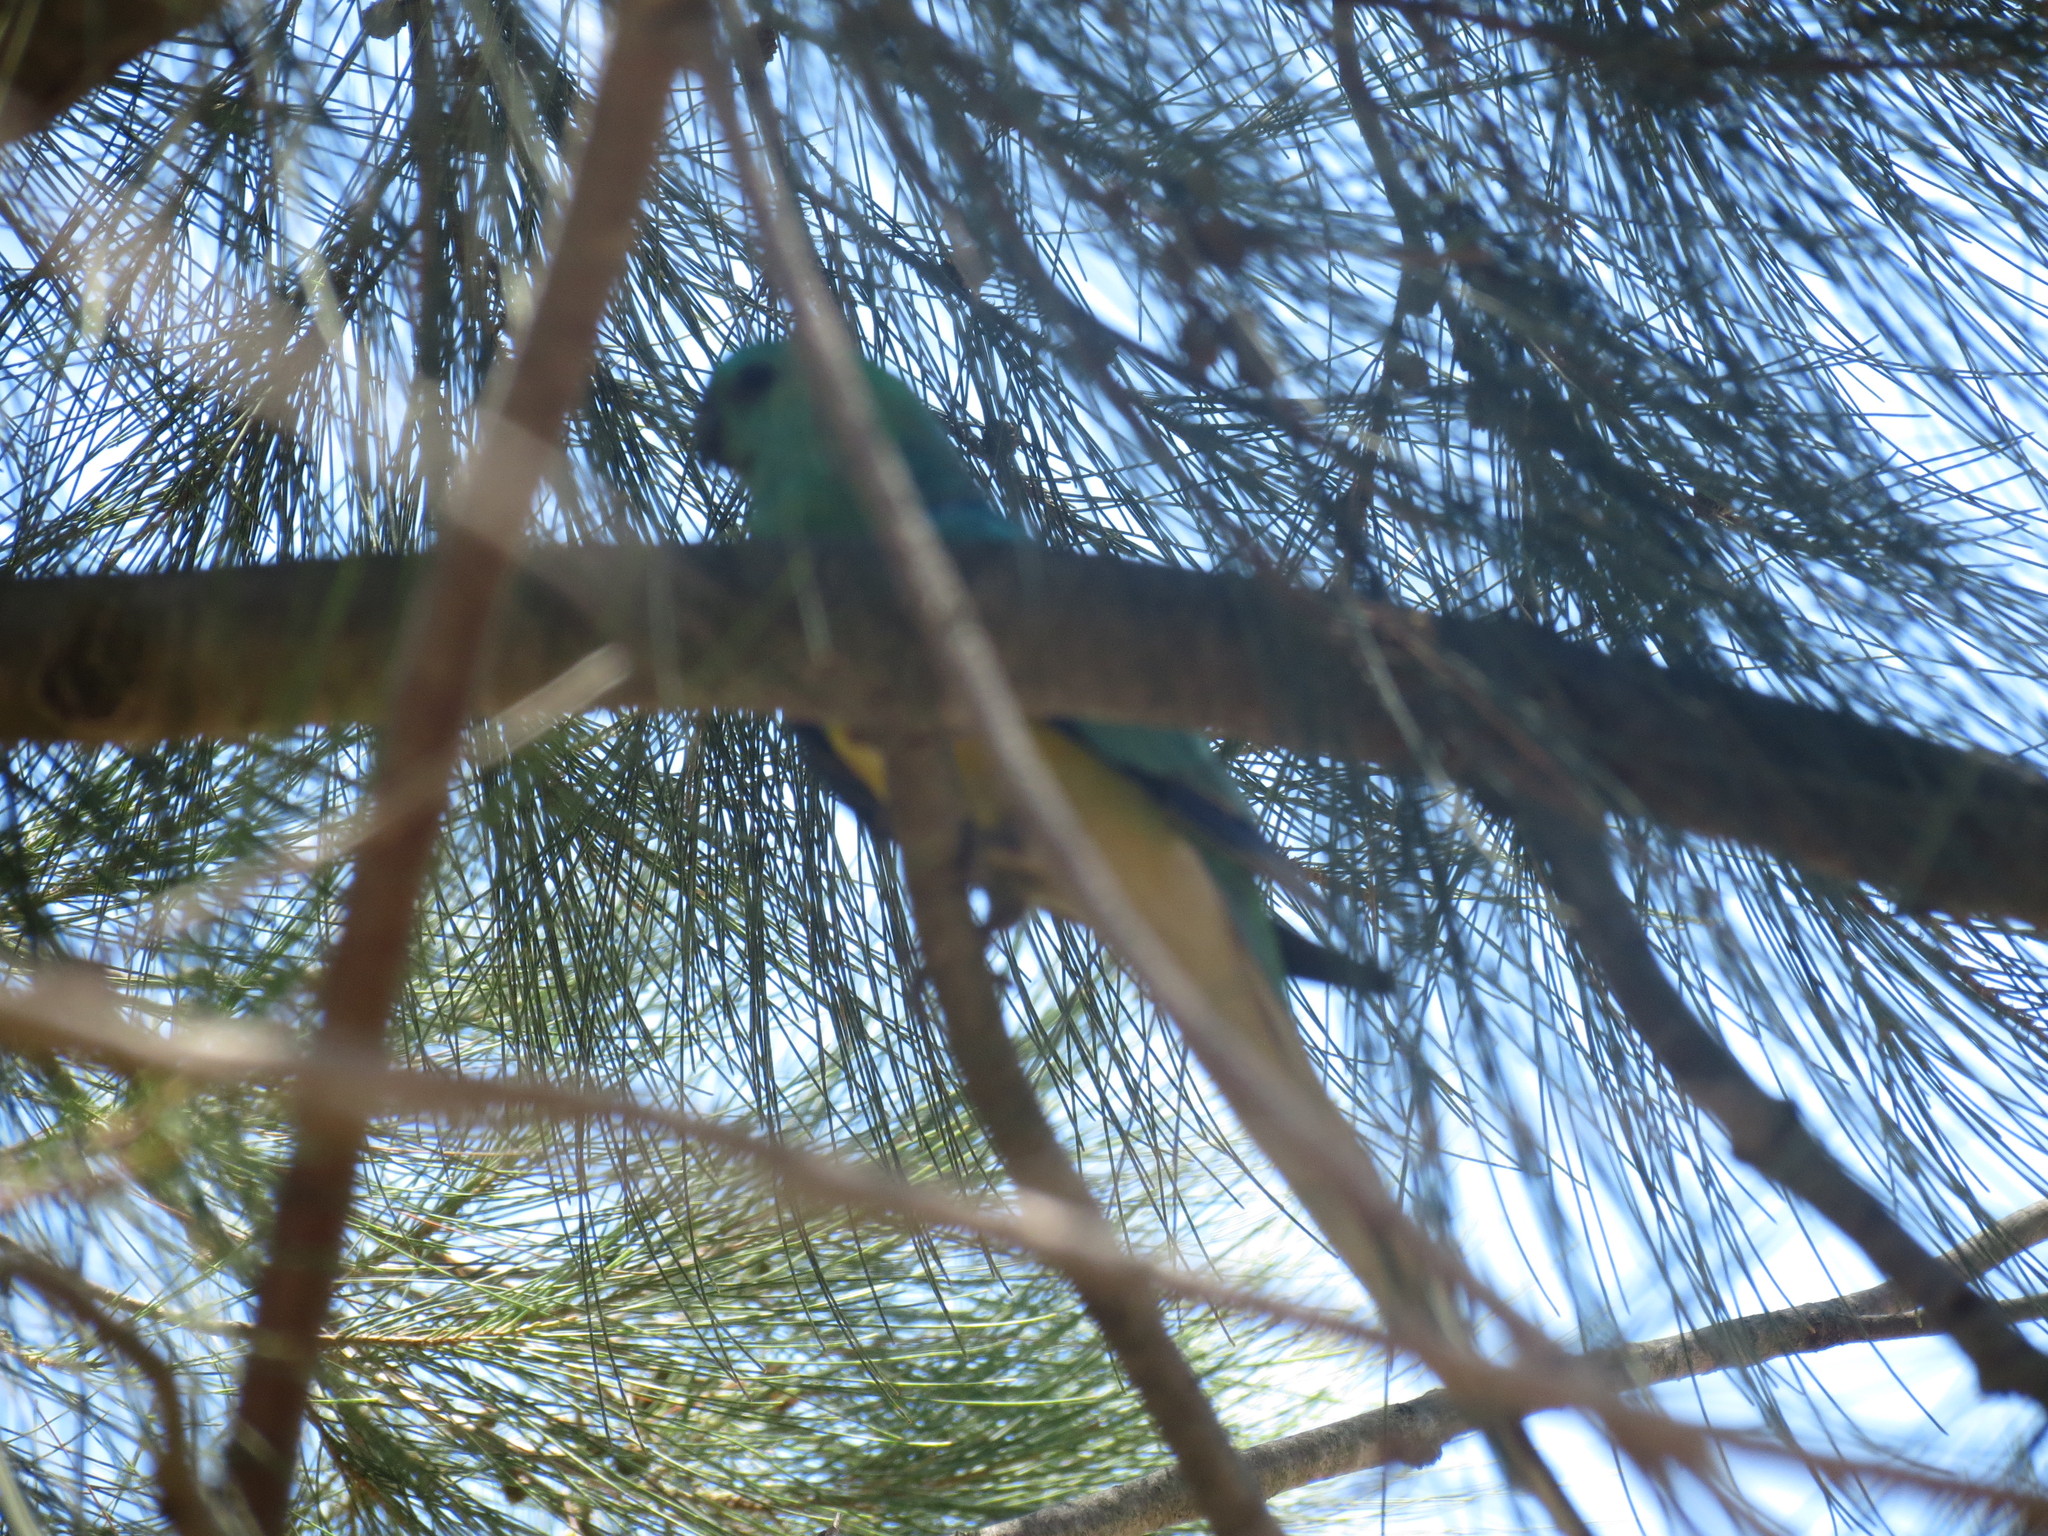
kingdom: Animalia
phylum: Chordata
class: Aves
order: Psittaciformes
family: Psittacidae
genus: Psephotus
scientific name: Psephotus haematonotus
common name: Red-rumped parrot
